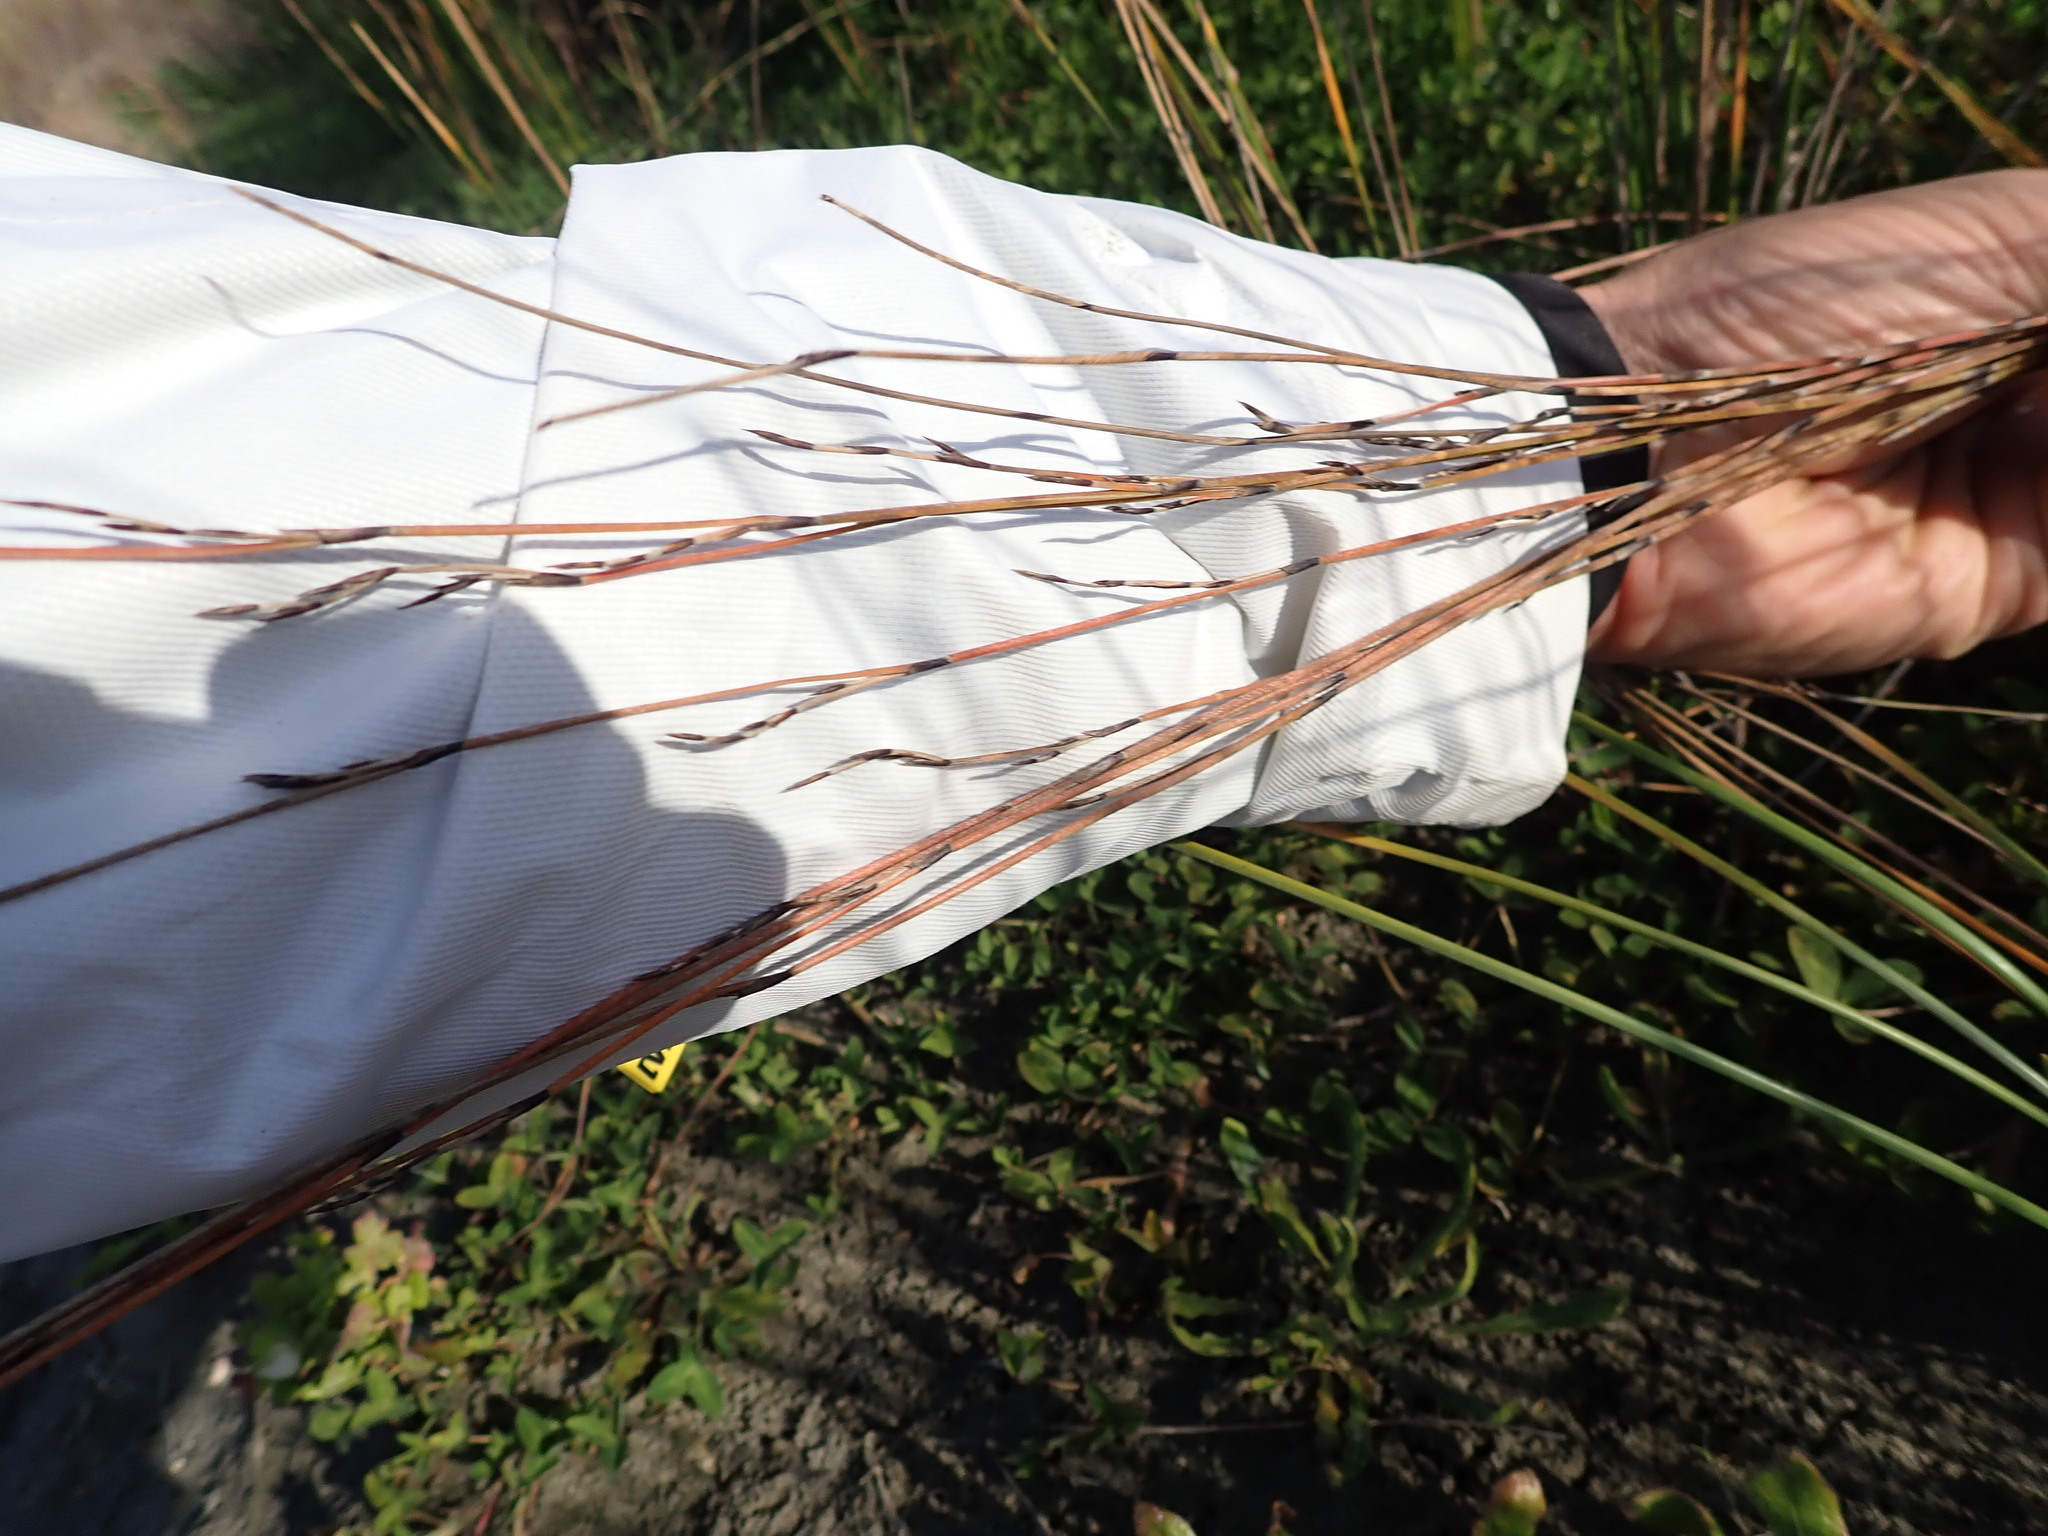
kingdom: Plantae
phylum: Tracheophyta
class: Liliopsida
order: Poales
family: Restionaceae
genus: Apodasmia
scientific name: Apodasmia similis
